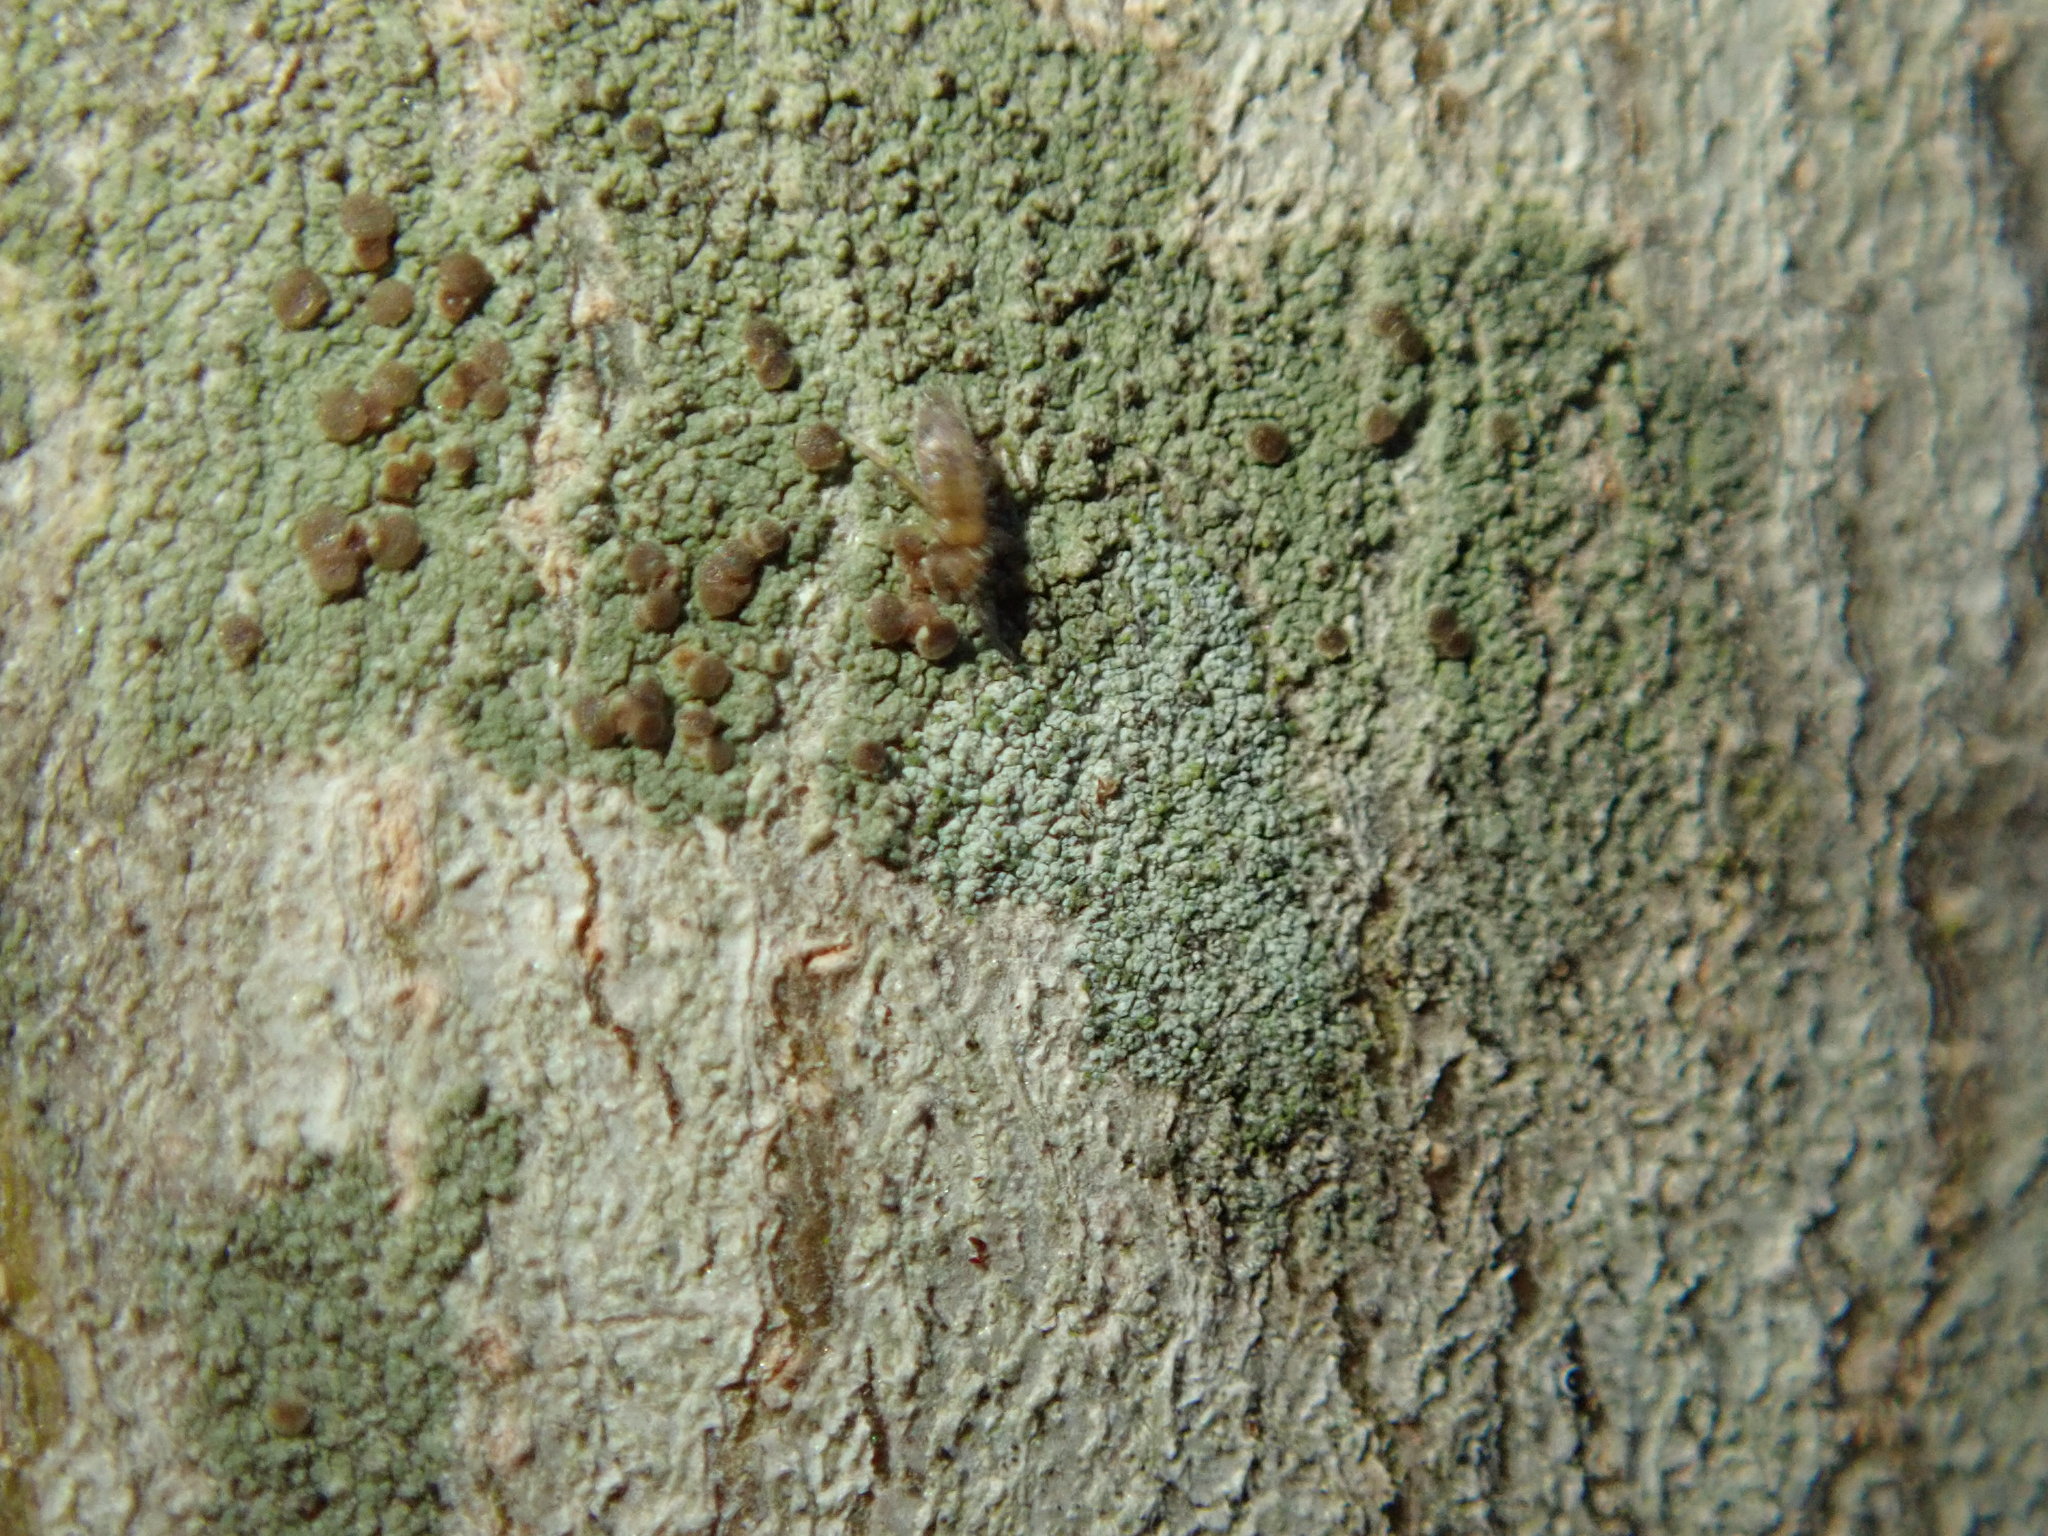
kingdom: Fungi
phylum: Ascomycota
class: Lecanoromycetes
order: Lecanorales
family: Lecanoraceae
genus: Traponora
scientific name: Traponora varians
